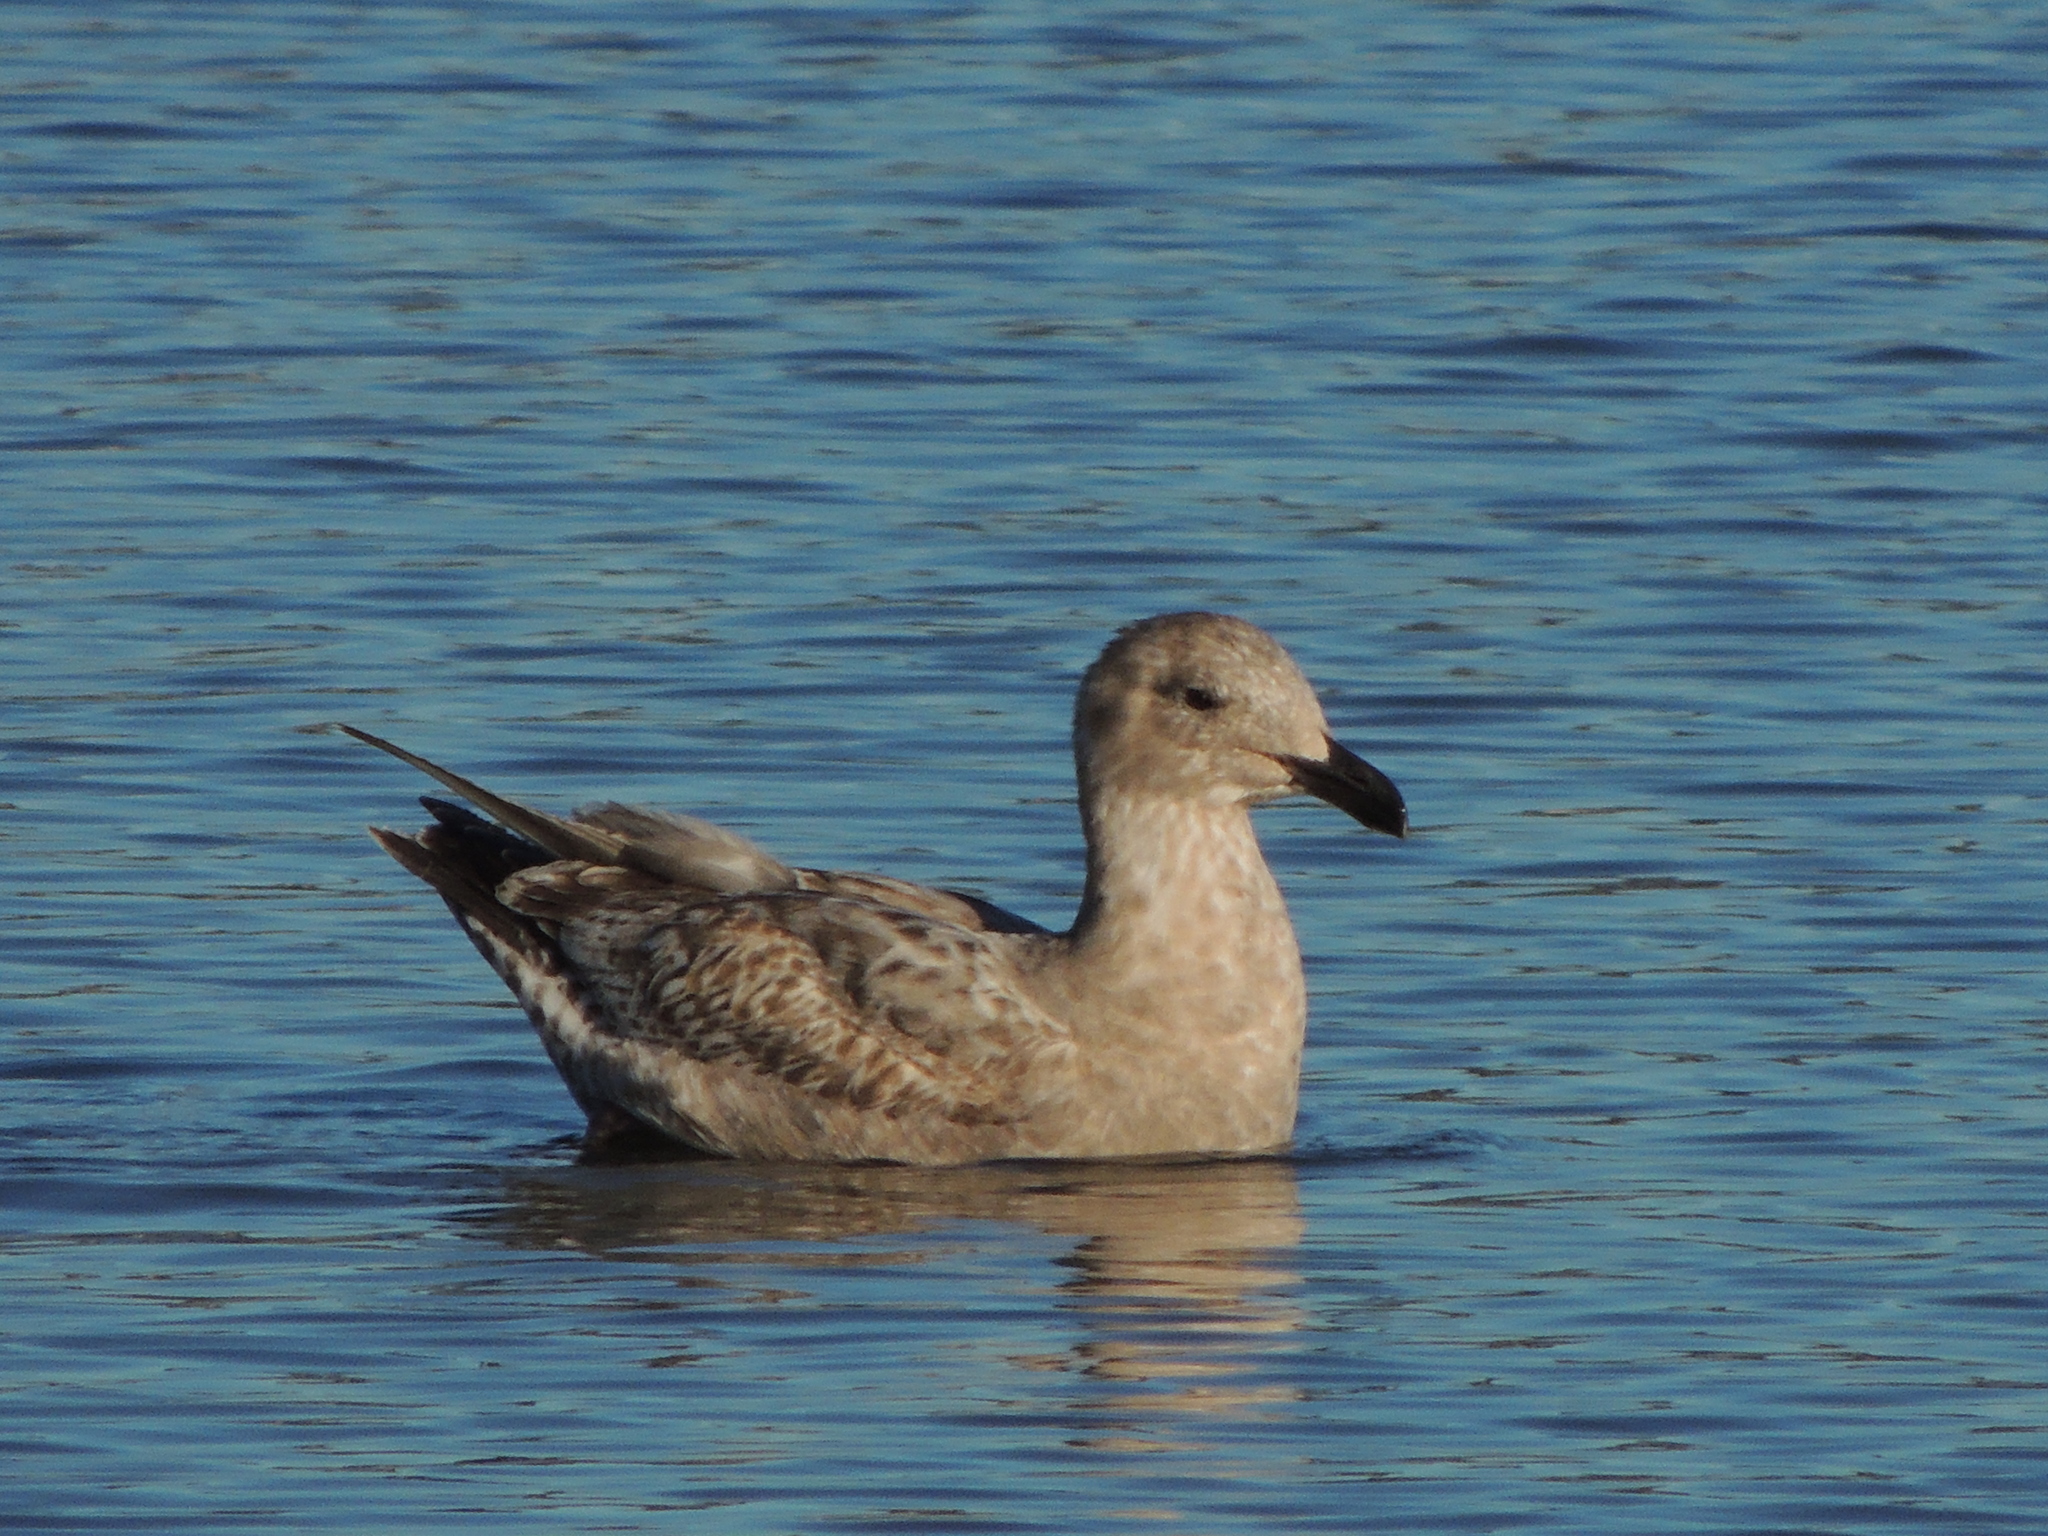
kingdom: Animalia
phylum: Chordata
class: Aves
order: Charadriiformes
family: Laridae
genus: Larus
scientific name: Larus occidentalis
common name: Western gull
